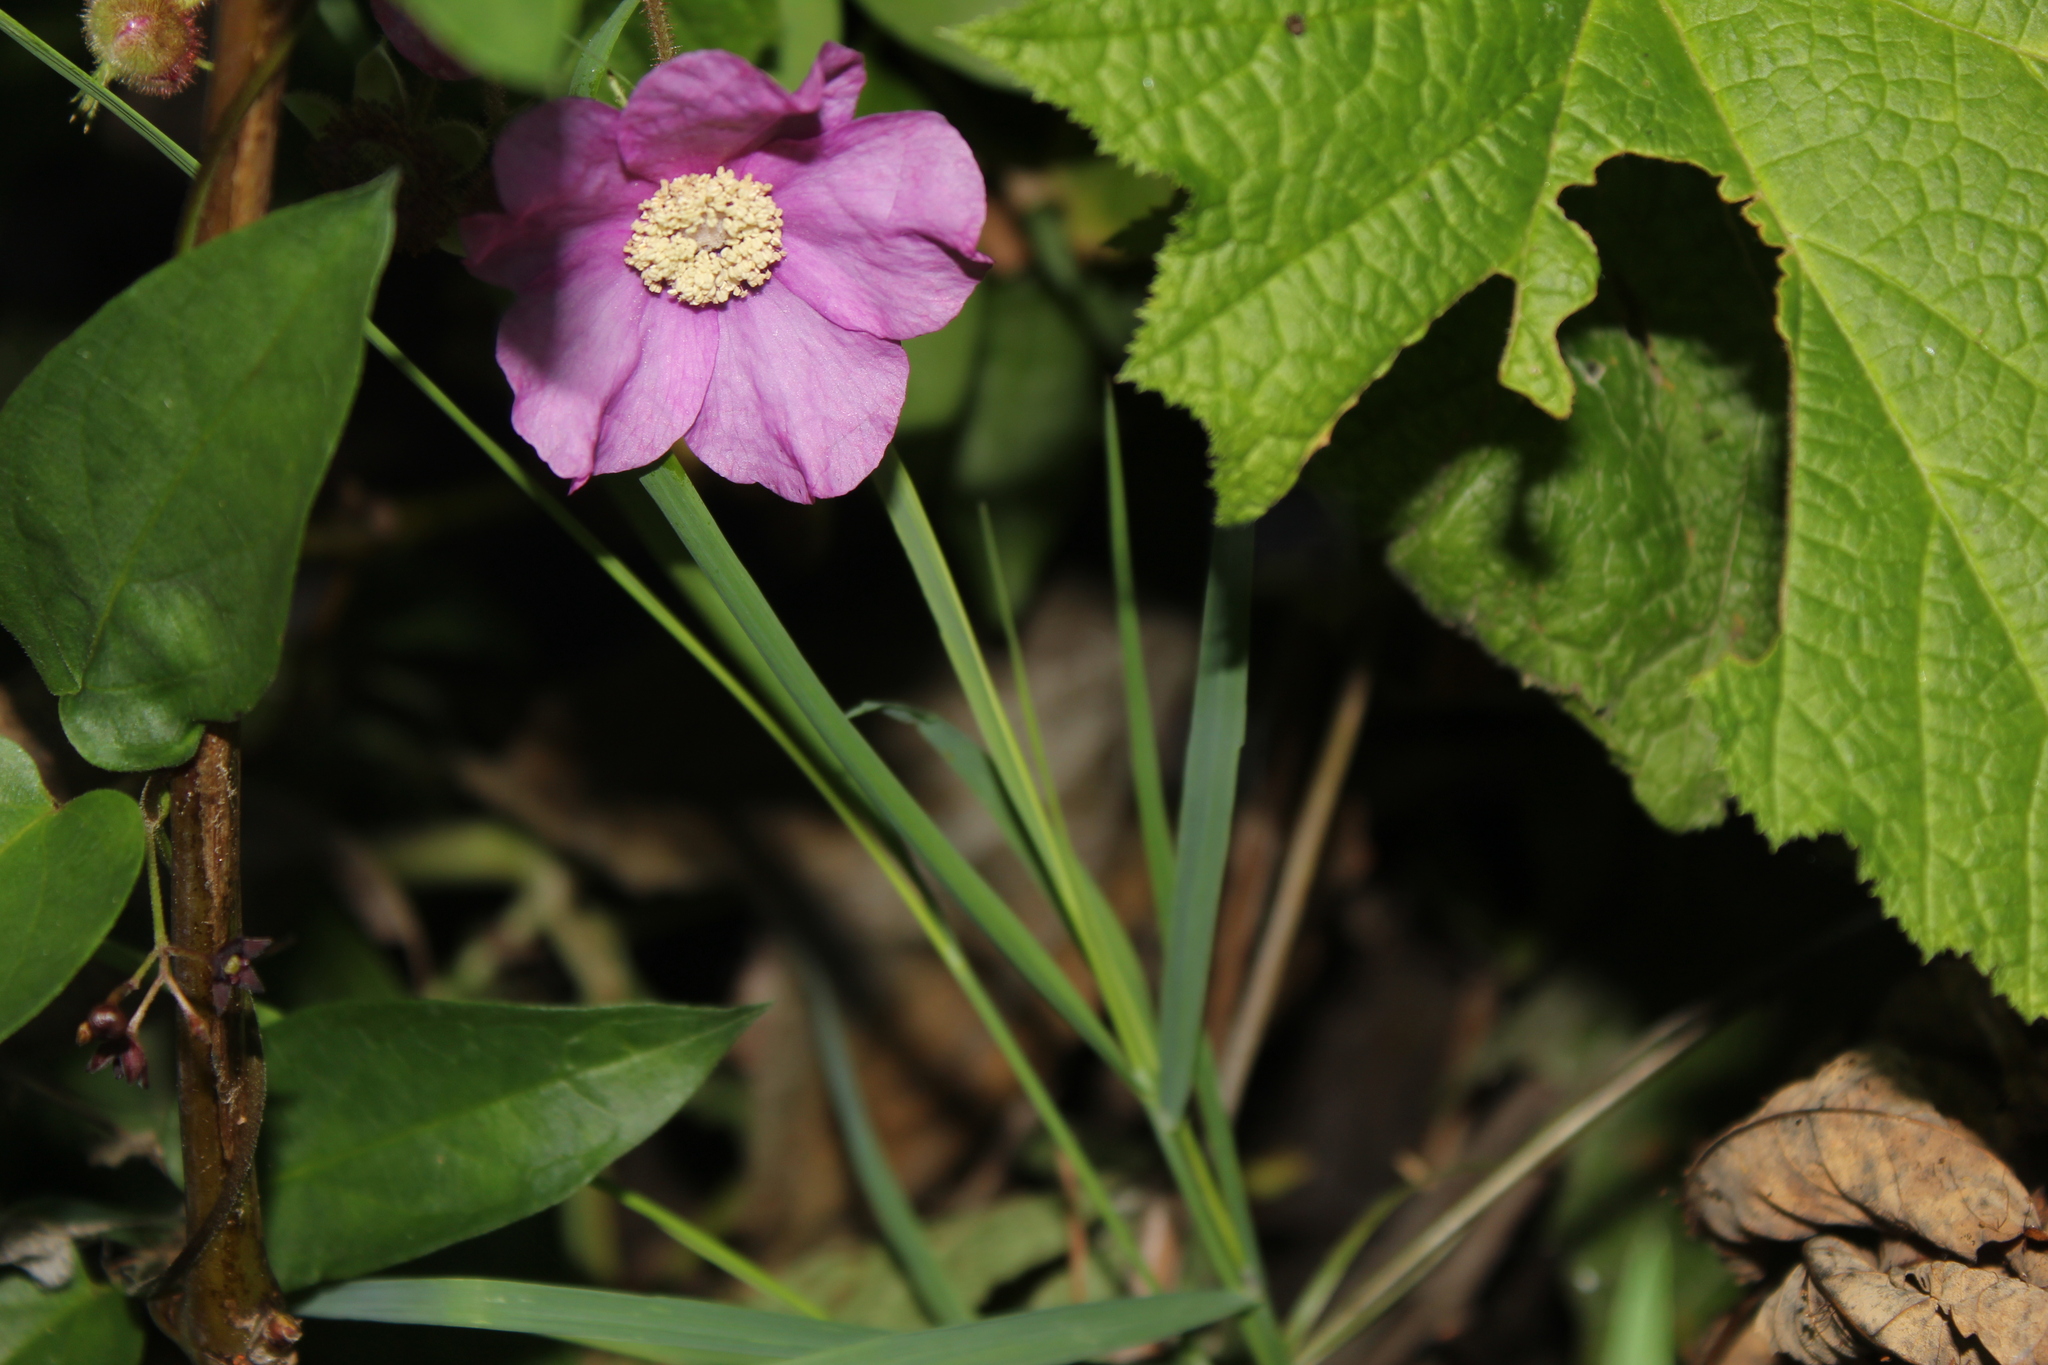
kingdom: Plantae
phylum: Tracheophyta
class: Magnoliopsida
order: Rosales
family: Rosaceae
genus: Rubus
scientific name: Rubus odoratus
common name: Purple-flowered raspberry
